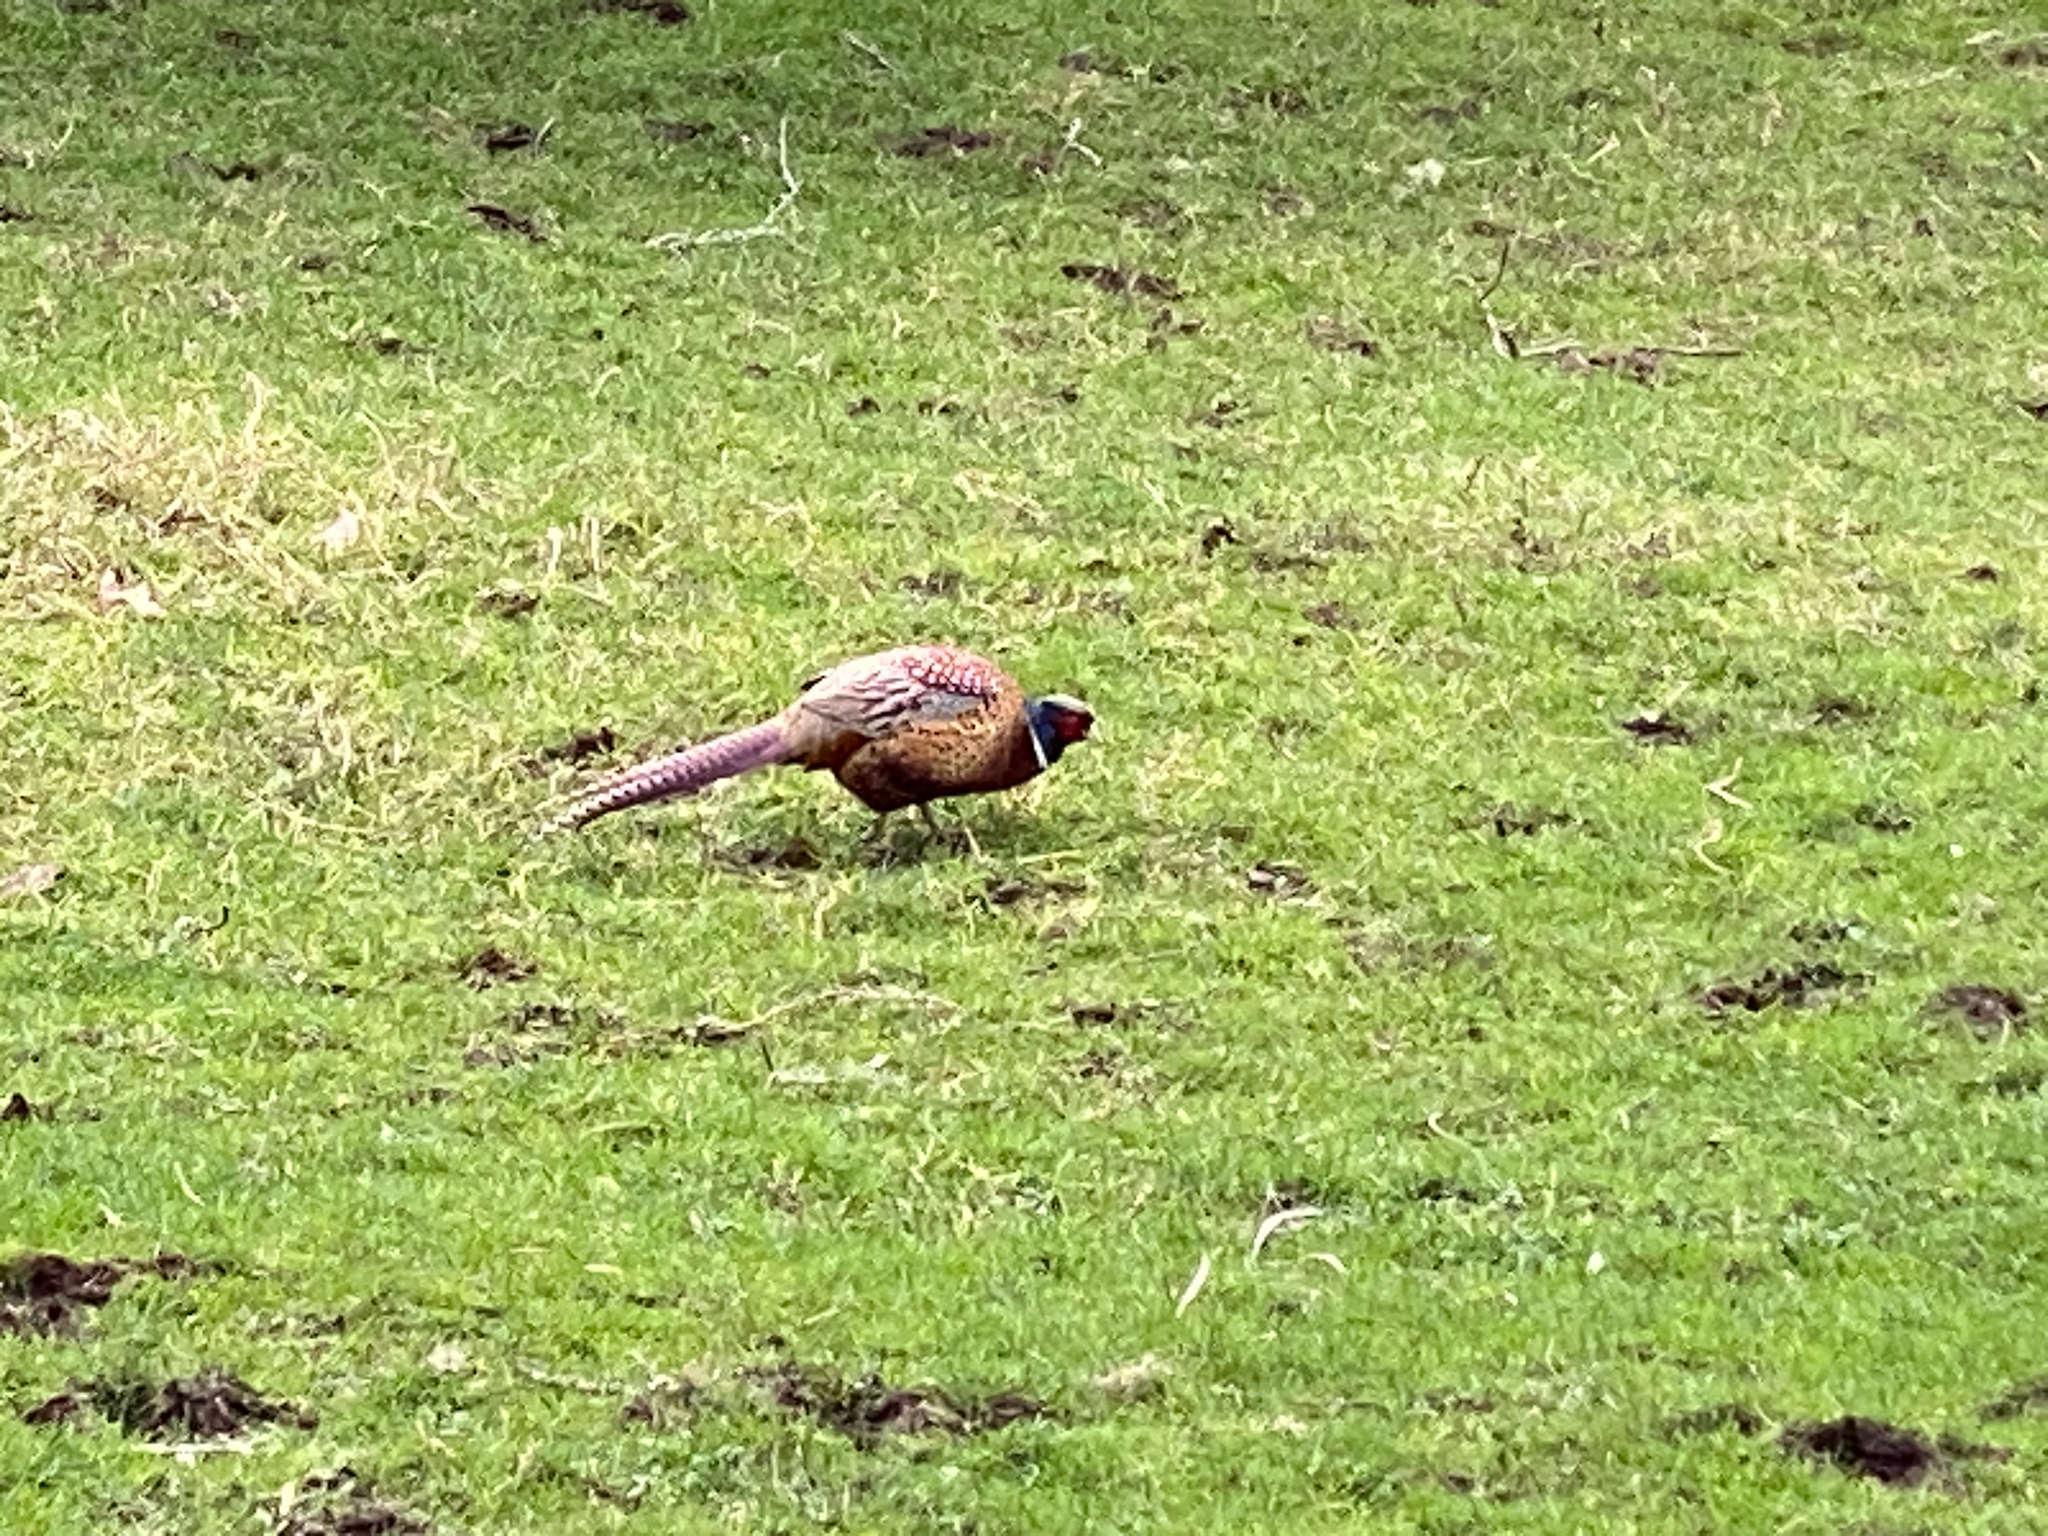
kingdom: Animalia
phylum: Chordata
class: Aves
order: Galliformes
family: Phasianidae
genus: Phasianus
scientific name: Phasianus colchicus
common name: Common pheasant
